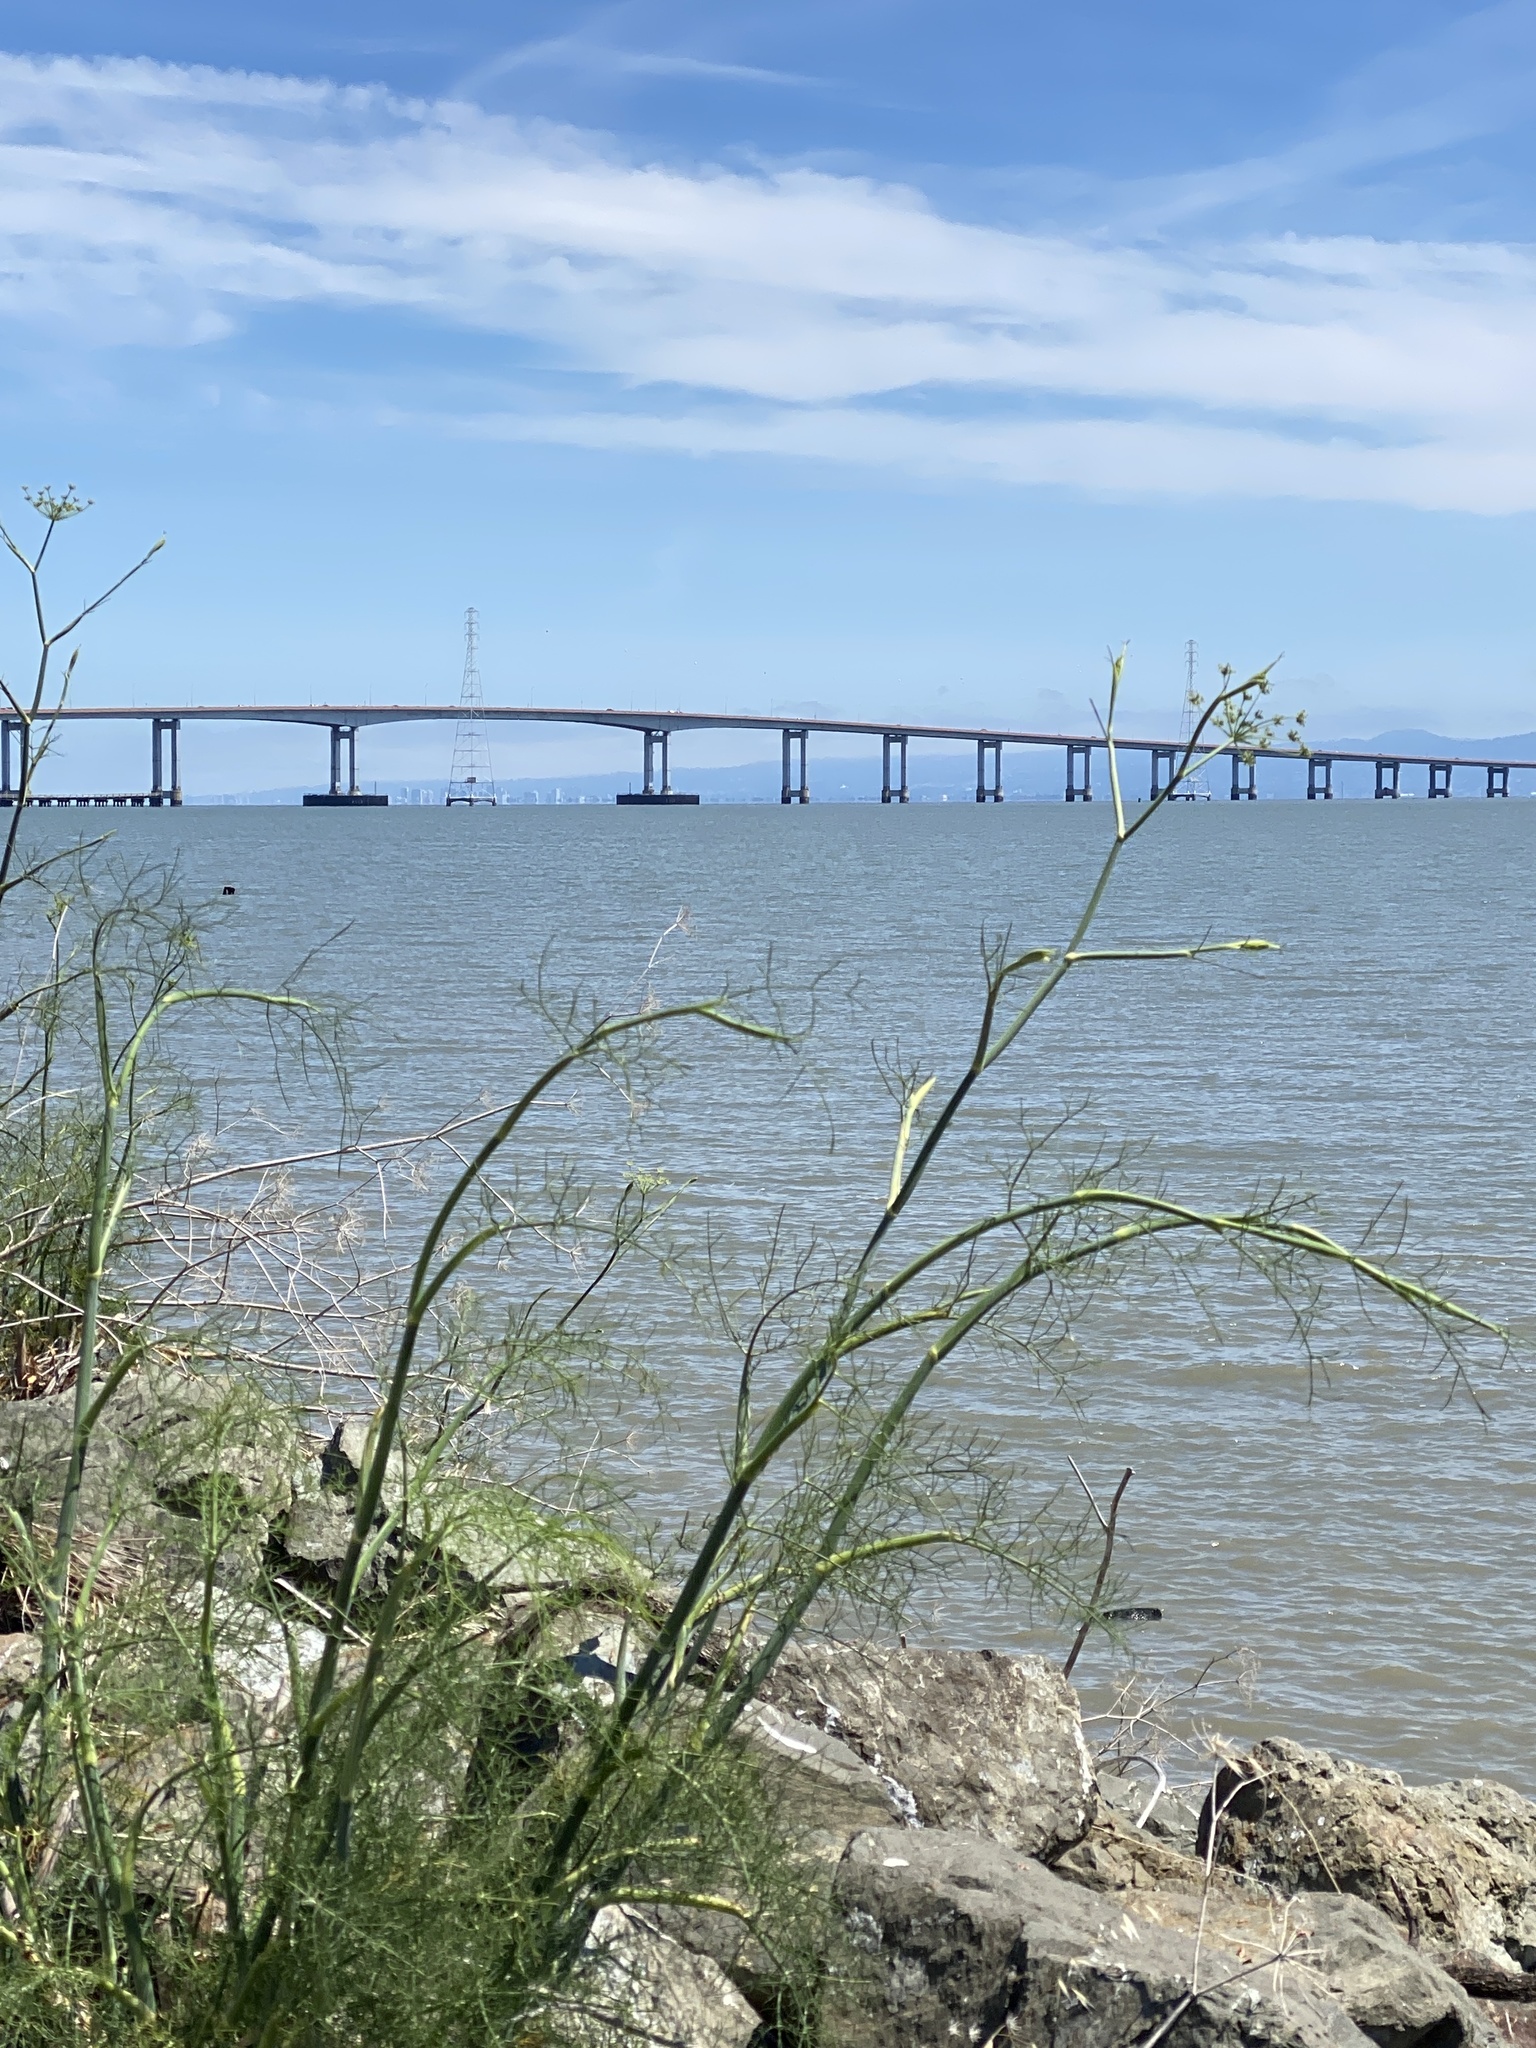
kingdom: Plantae
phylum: Tracheophyta
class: Magnoliopsida
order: Apiales
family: Apiaceae
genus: Foeniculum
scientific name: Foeniculum vulgare
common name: Fennel
